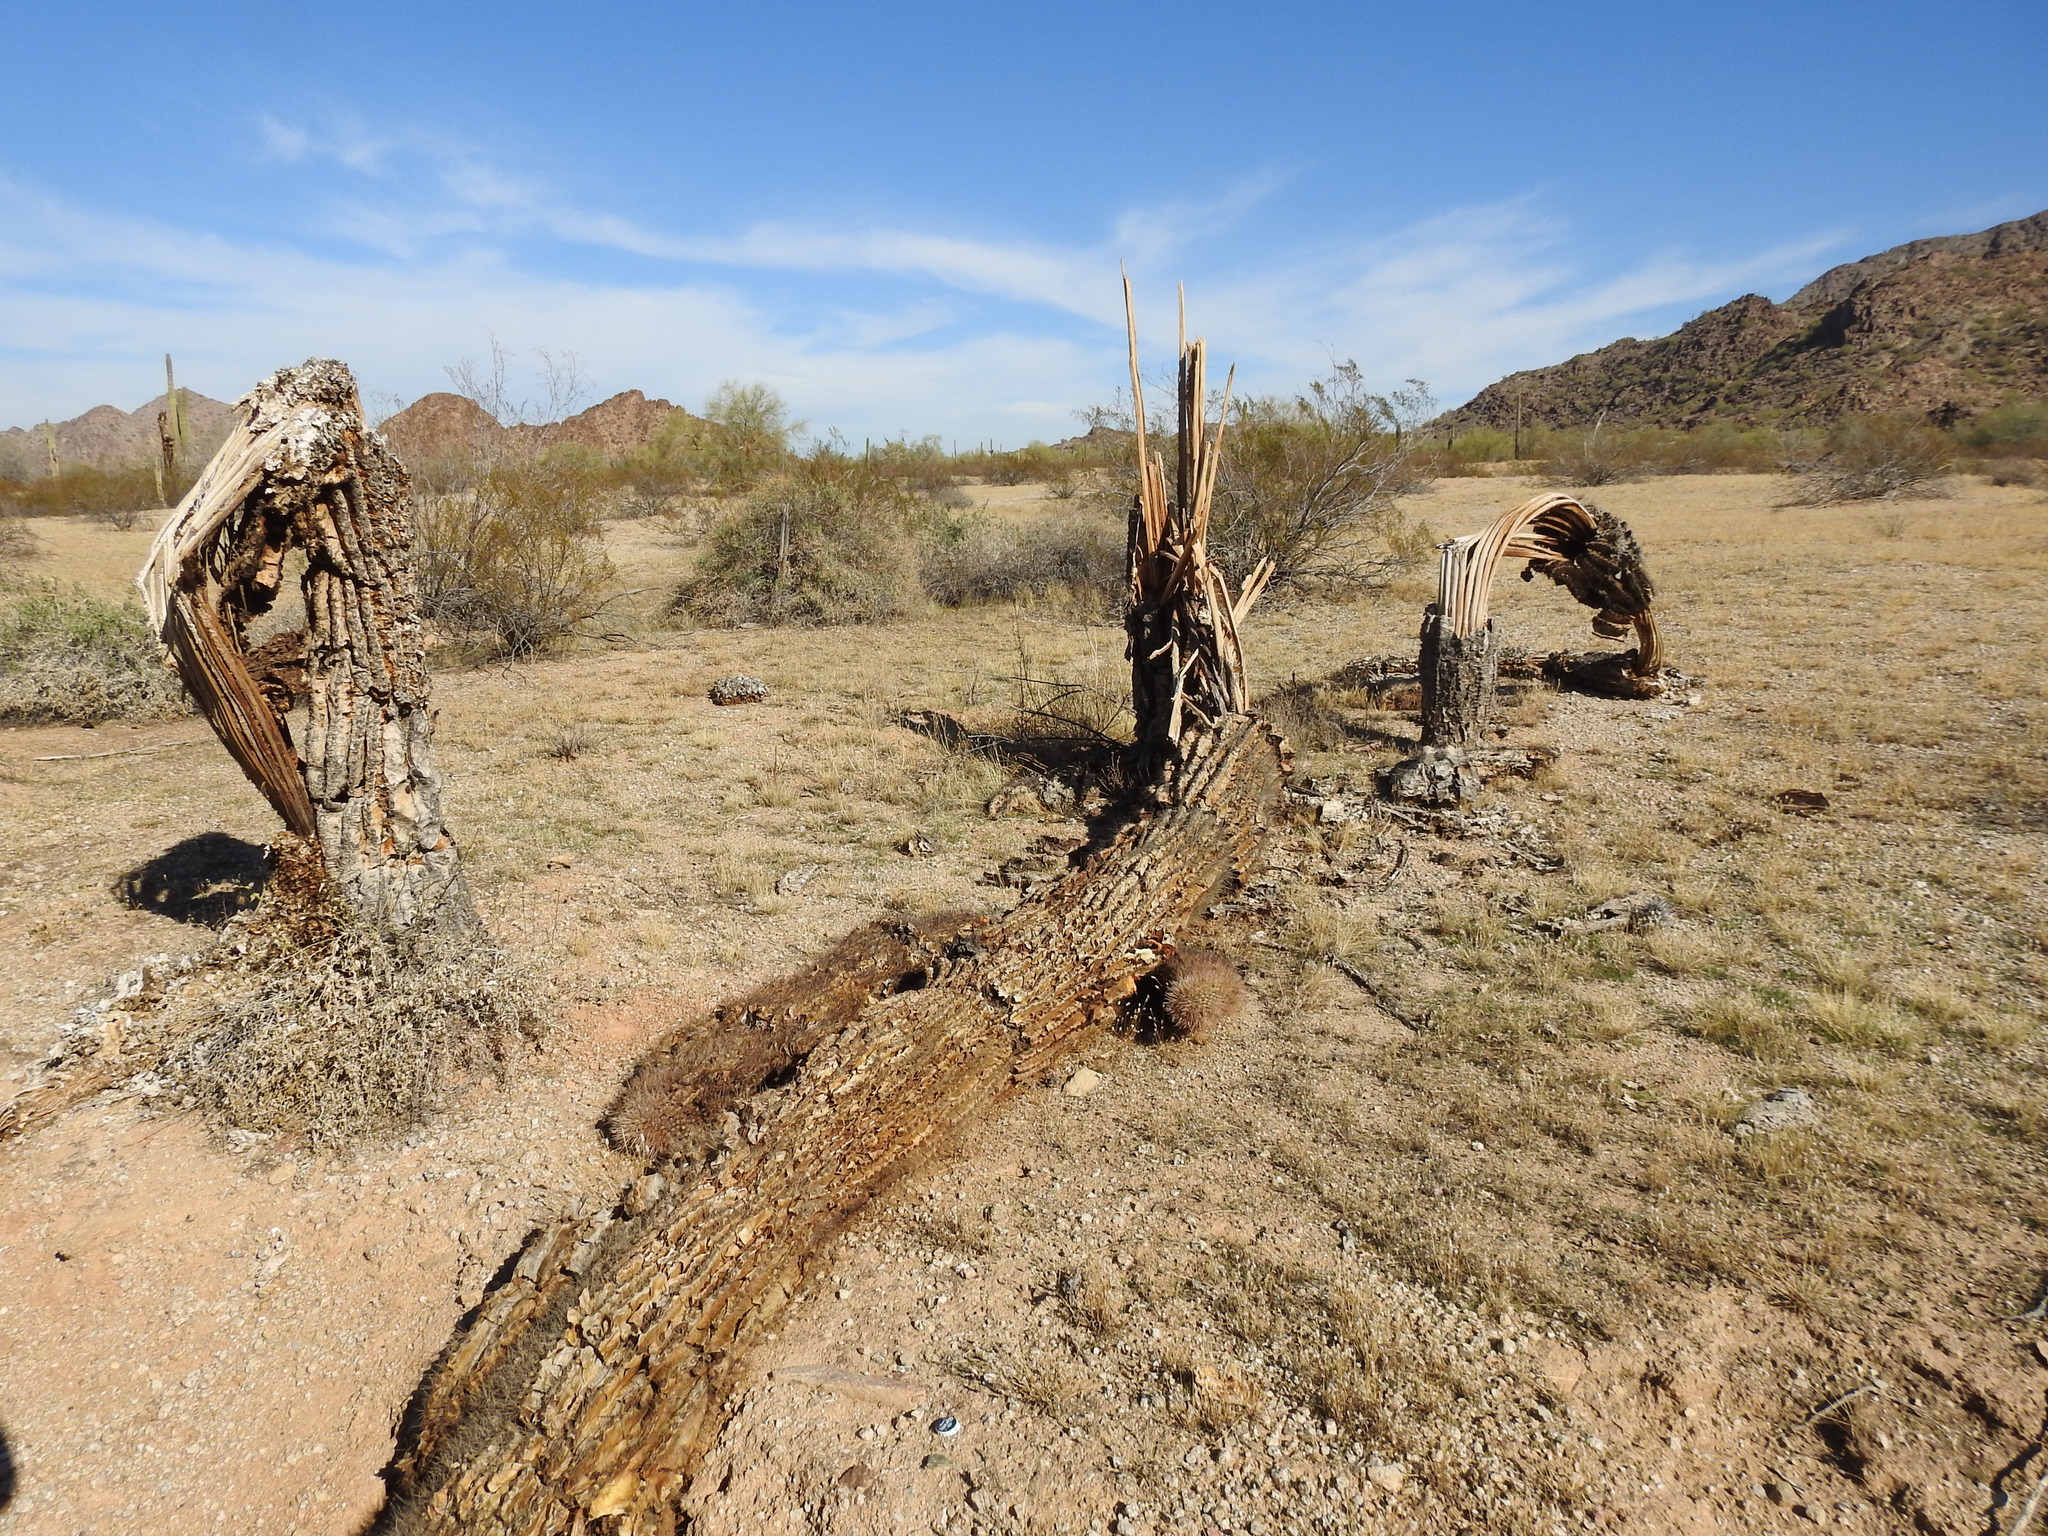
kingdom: Plantae
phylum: Tracheophyta
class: Magnoliopsida
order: Caryophyllales
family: Cactaceae
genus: Carnegiea
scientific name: Carnegiea gigantea
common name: Saguaro
